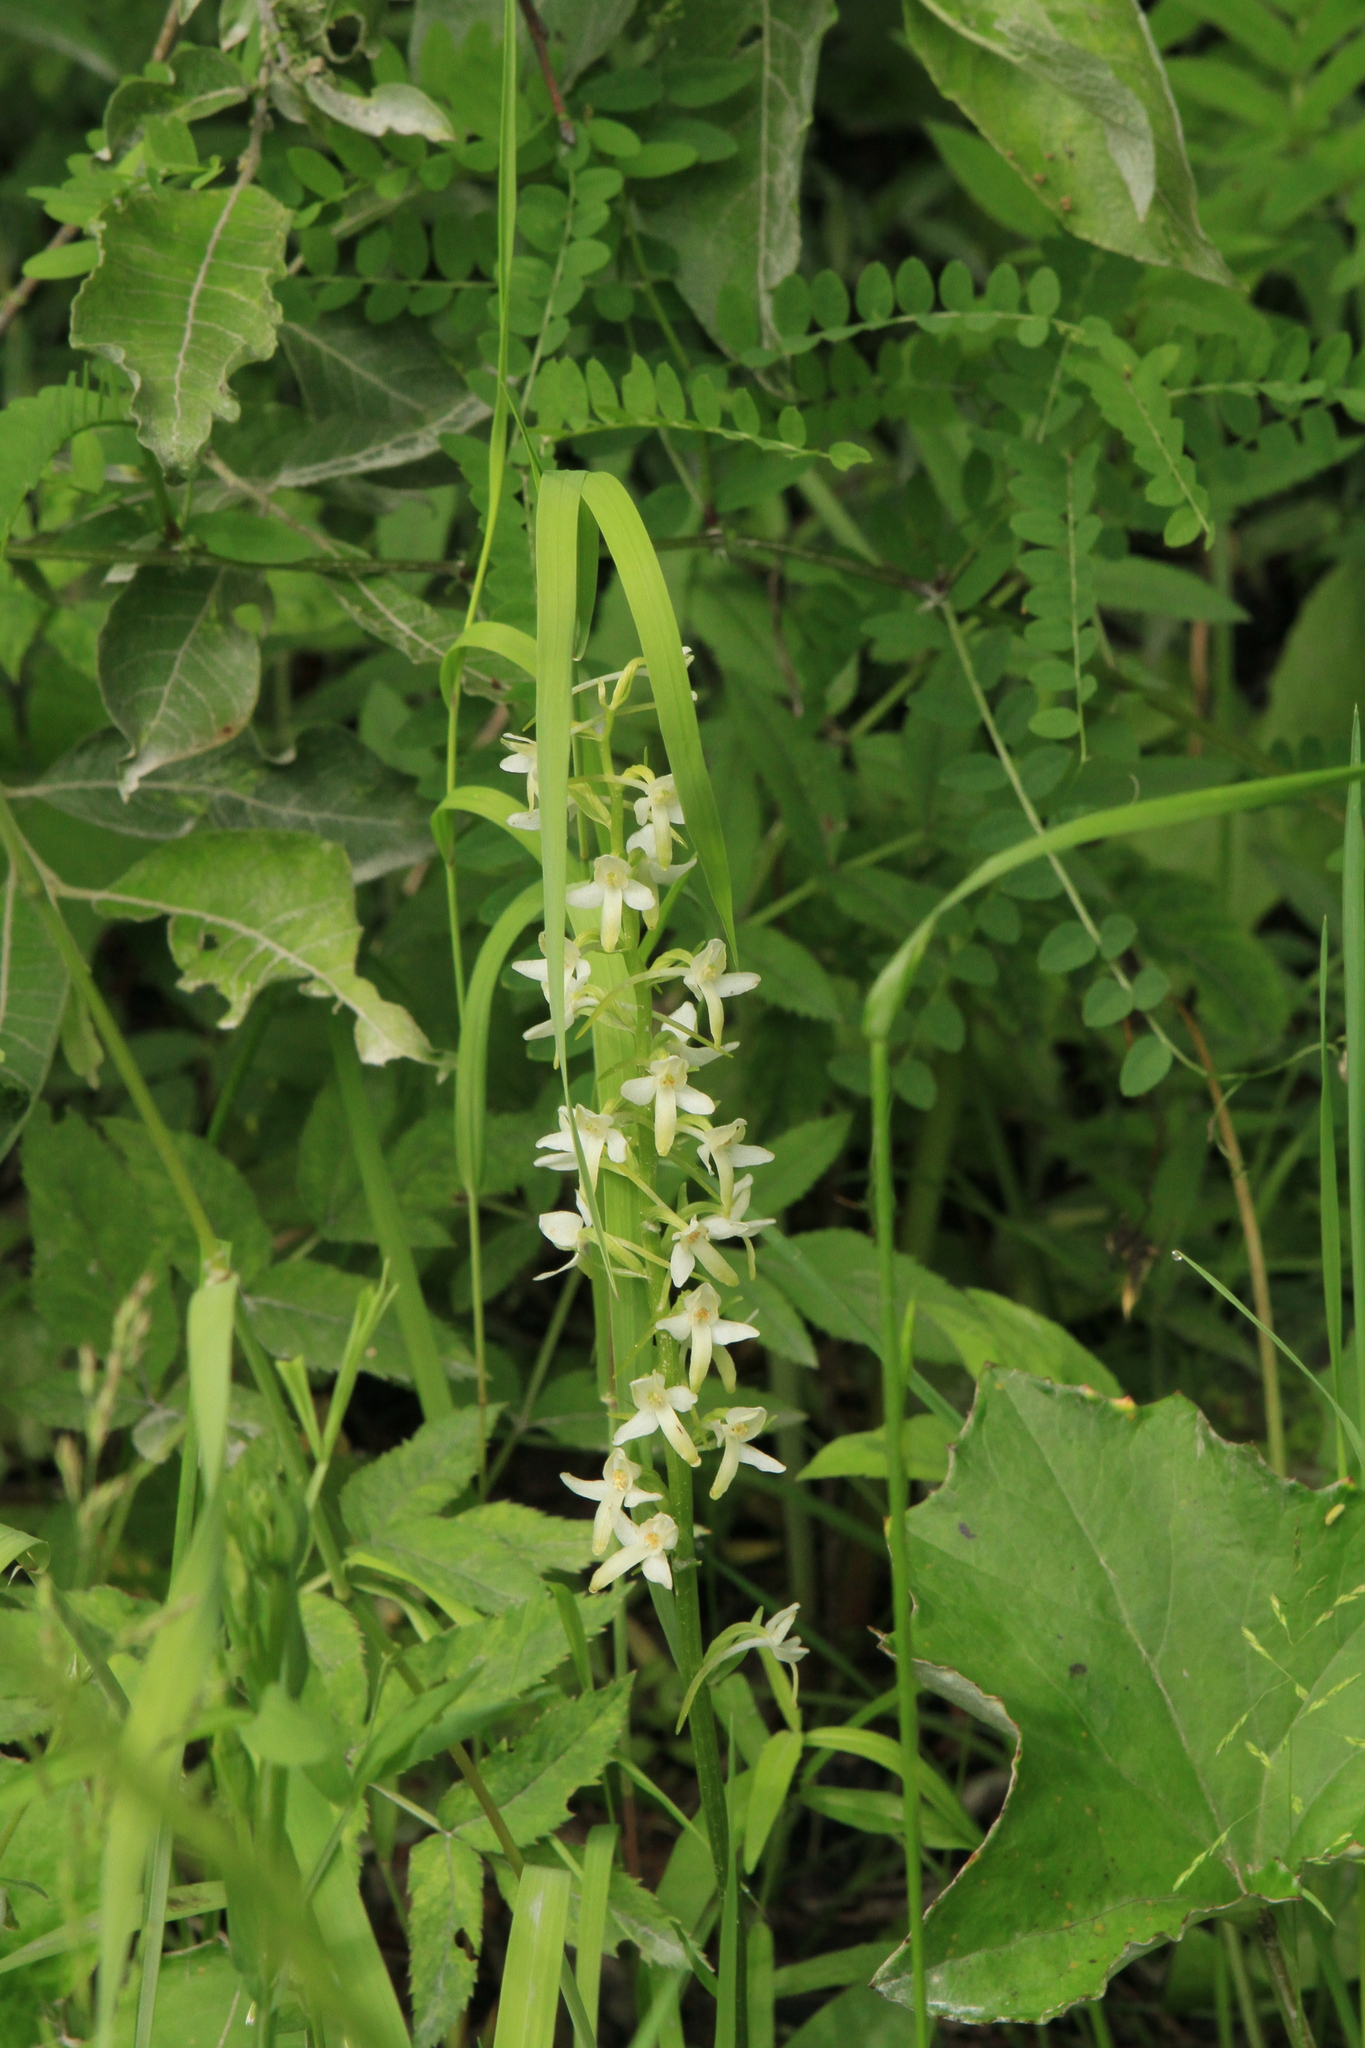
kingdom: Plantae
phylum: Tracheophyta
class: Liliopsida
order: Asparagales
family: Orchidaceae
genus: Platanthera
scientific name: Platanthera bifolia
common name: Lesser butterfly-orchid
